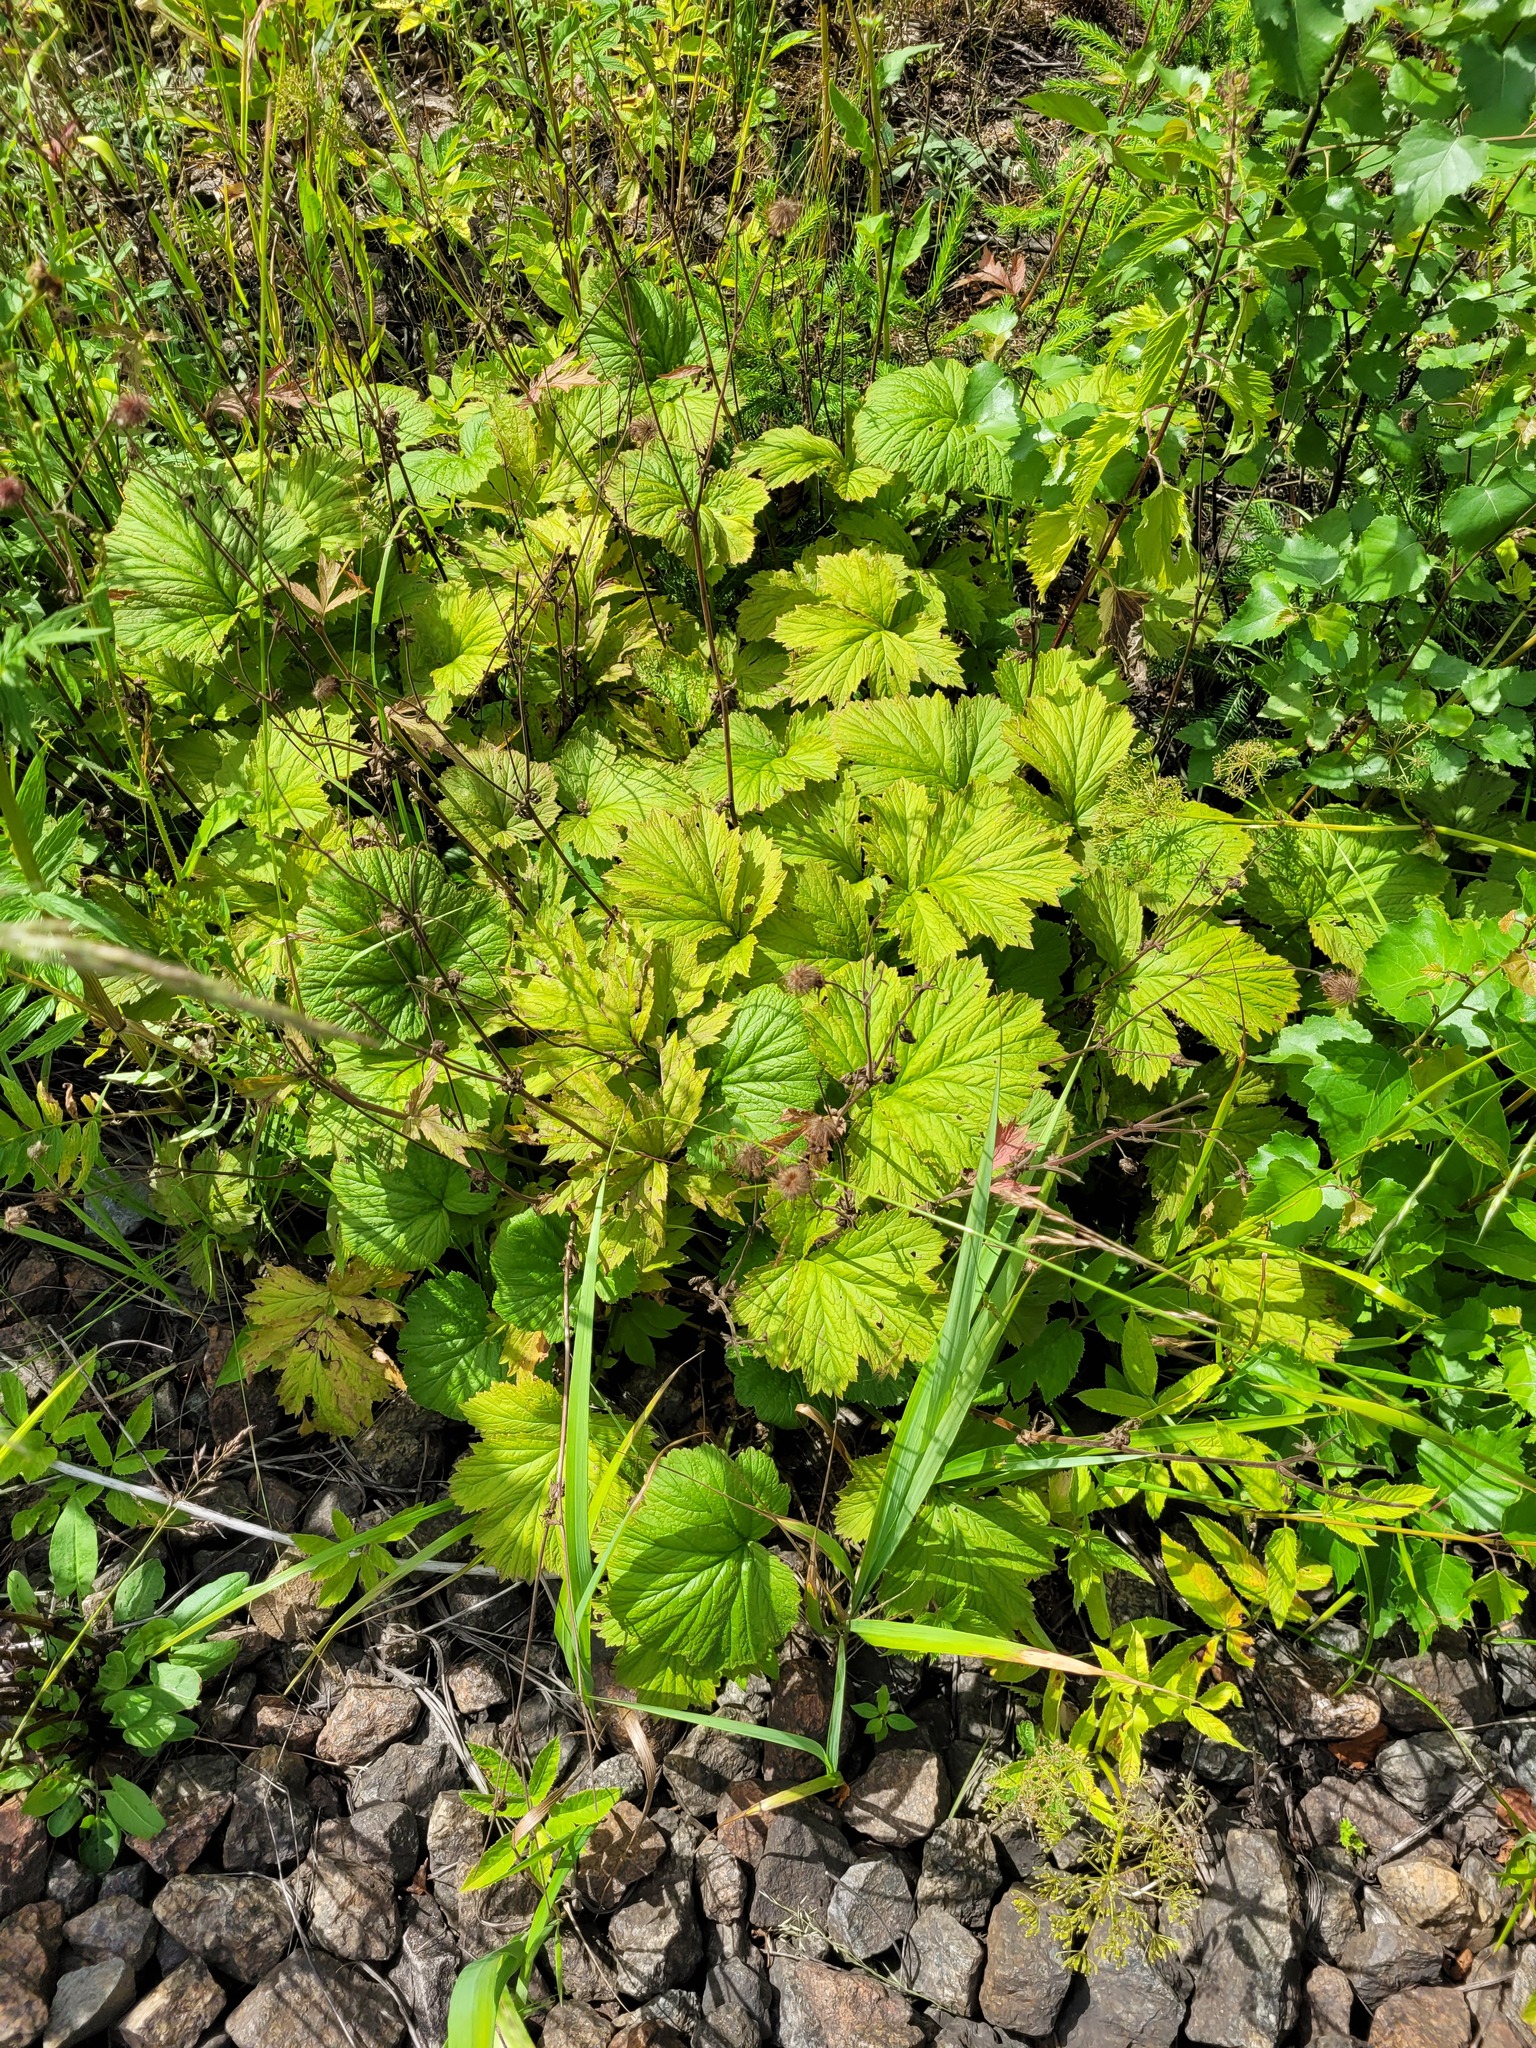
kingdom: Plantae
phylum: Tracheophyta
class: Magnoliopsida
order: Rosales
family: Rosaceae
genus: Geum
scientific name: Geum rivale
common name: Water avens
